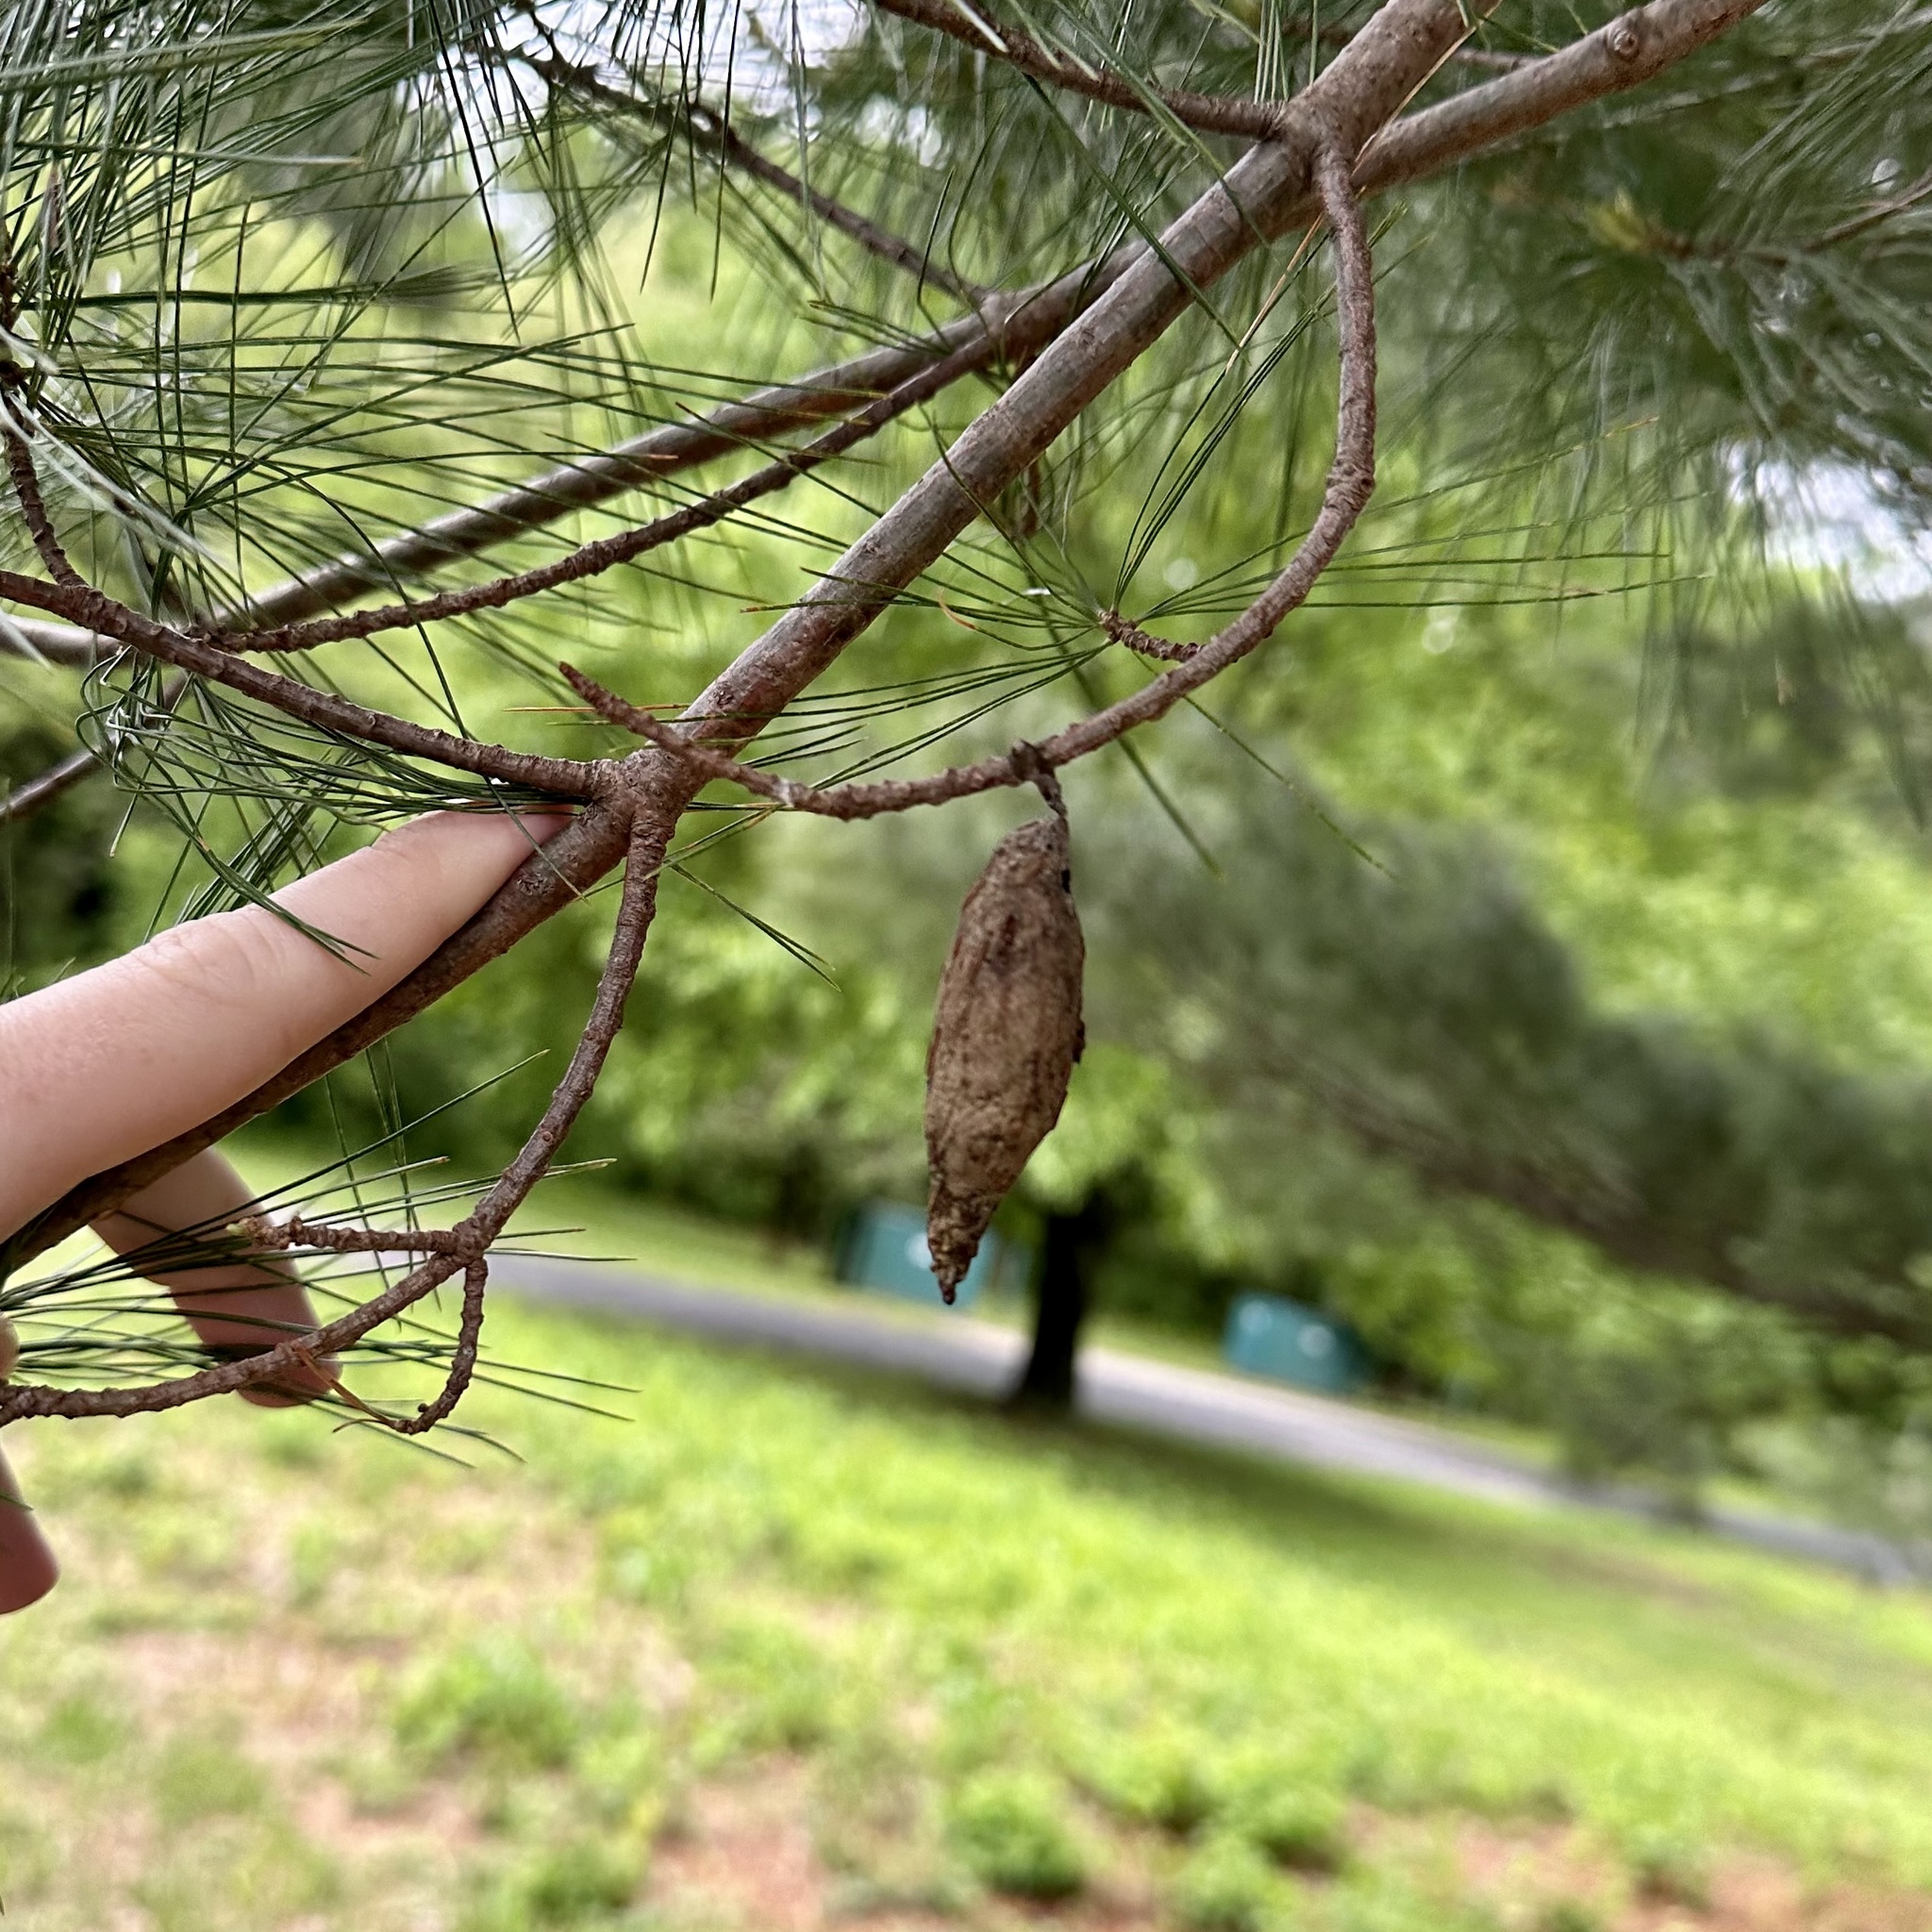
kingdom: Animalia
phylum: Arthropoda
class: Insecta
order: Lepidoptera
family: Psychidae
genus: Thyridopteryx
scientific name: Thyridopteryx ephemeraeformis
